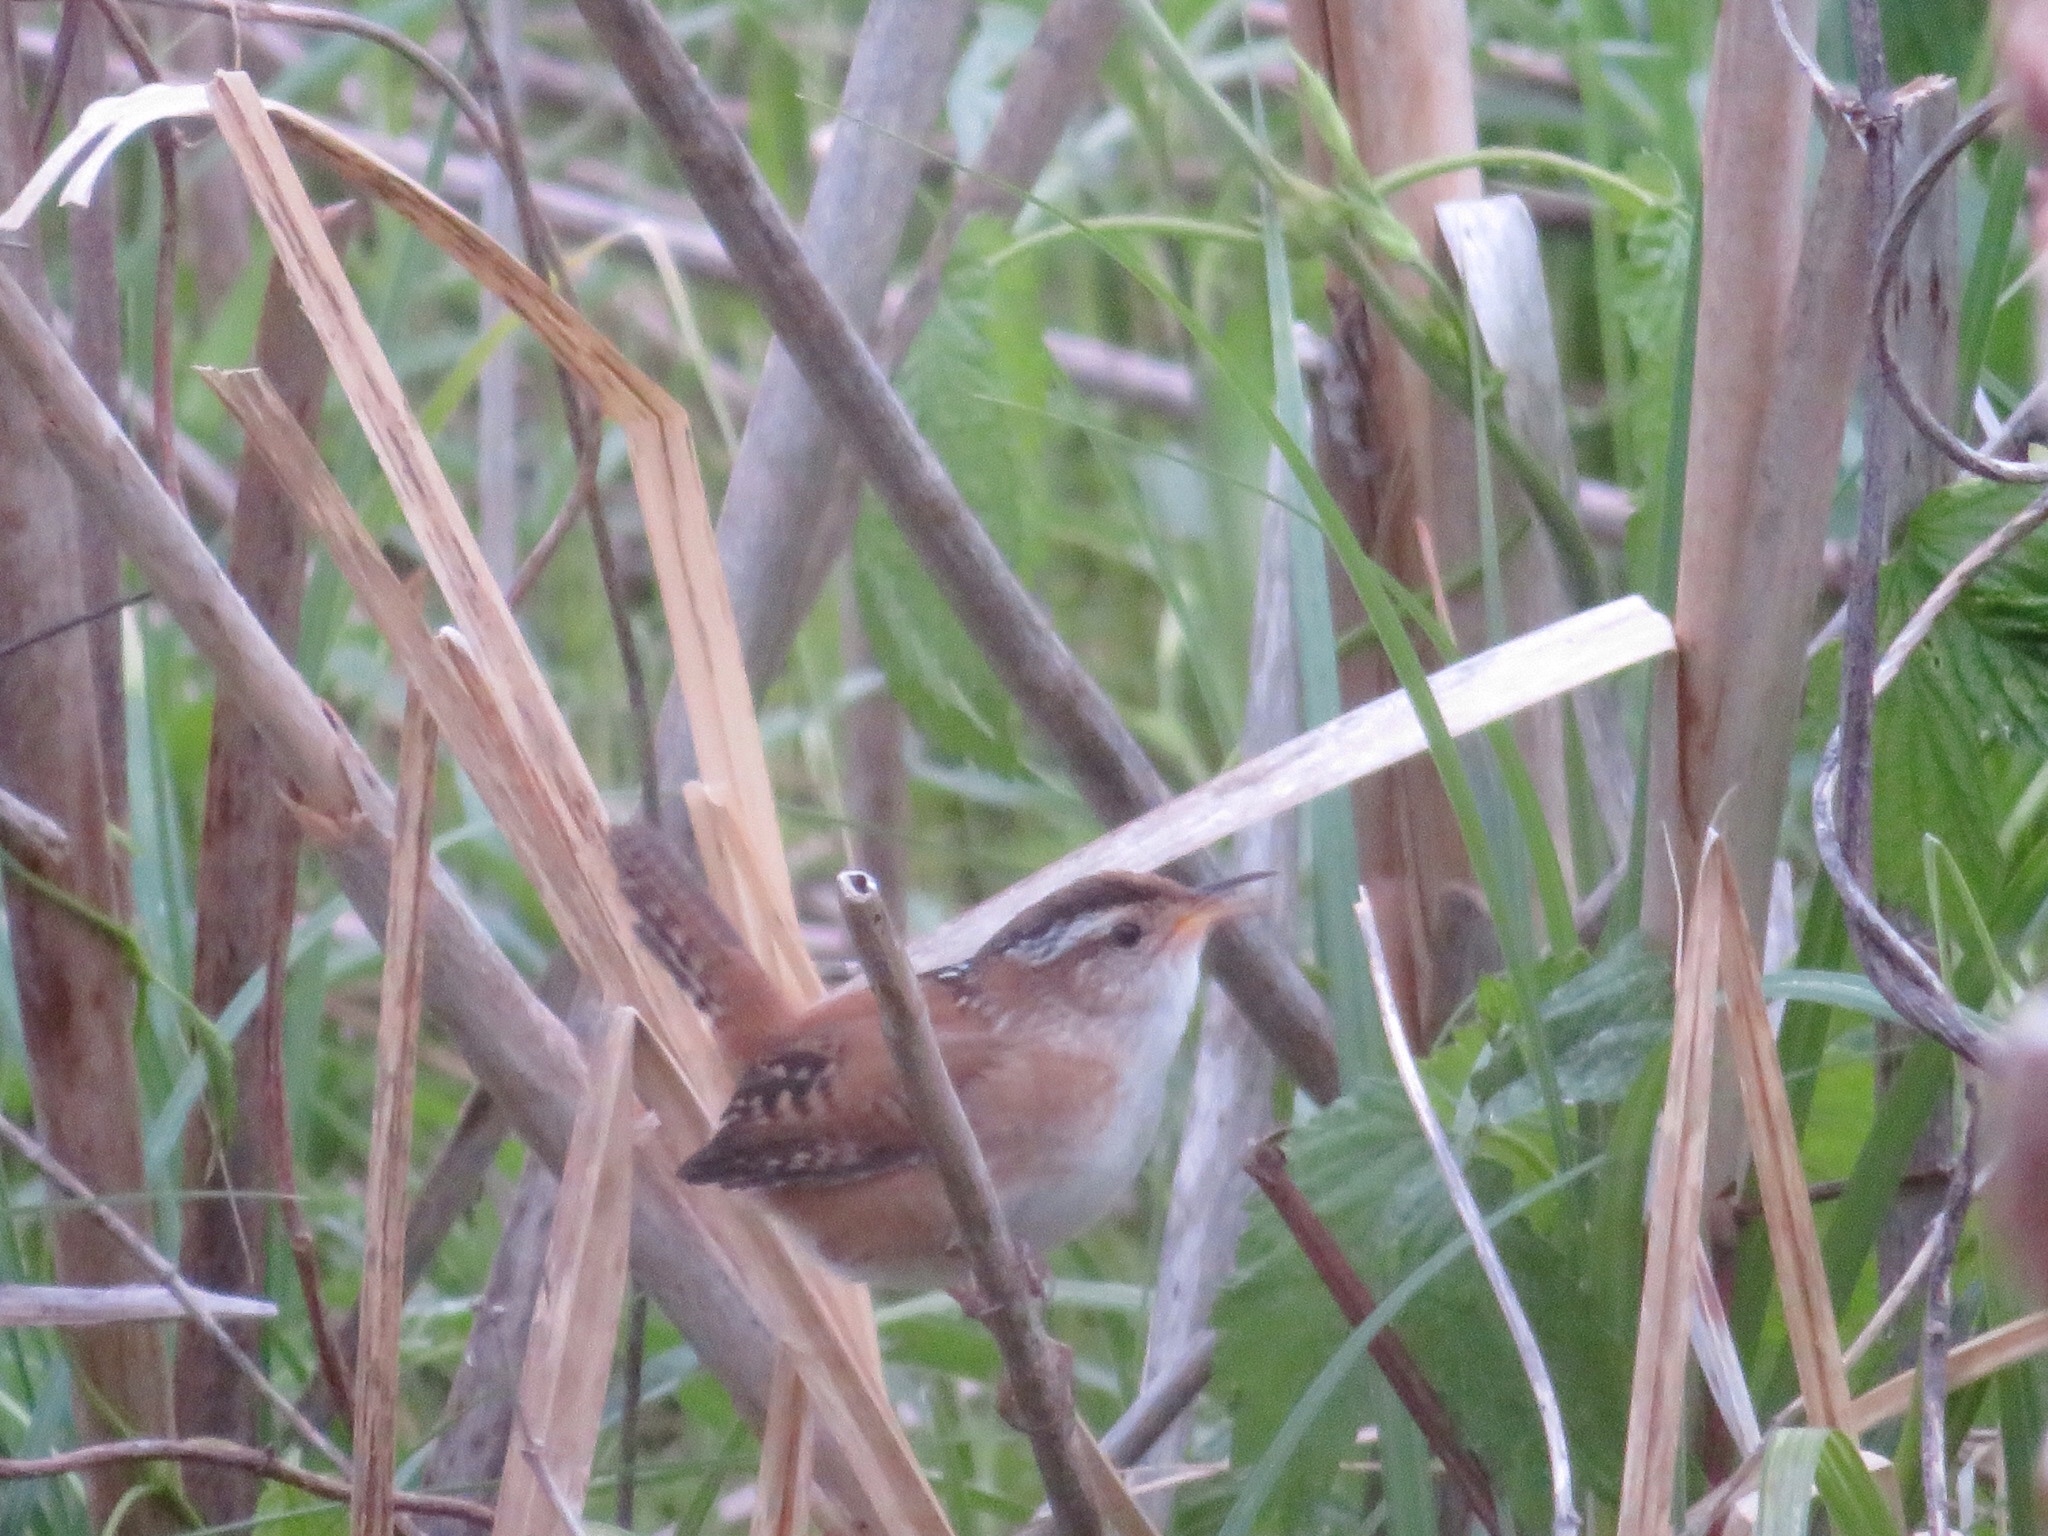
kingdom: Animalia
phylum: Chordata
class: Aves
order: Passeriformes
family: Troglodytidae
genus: Cistothorus
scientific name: Cistothorus palustris
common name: Marsh wren
